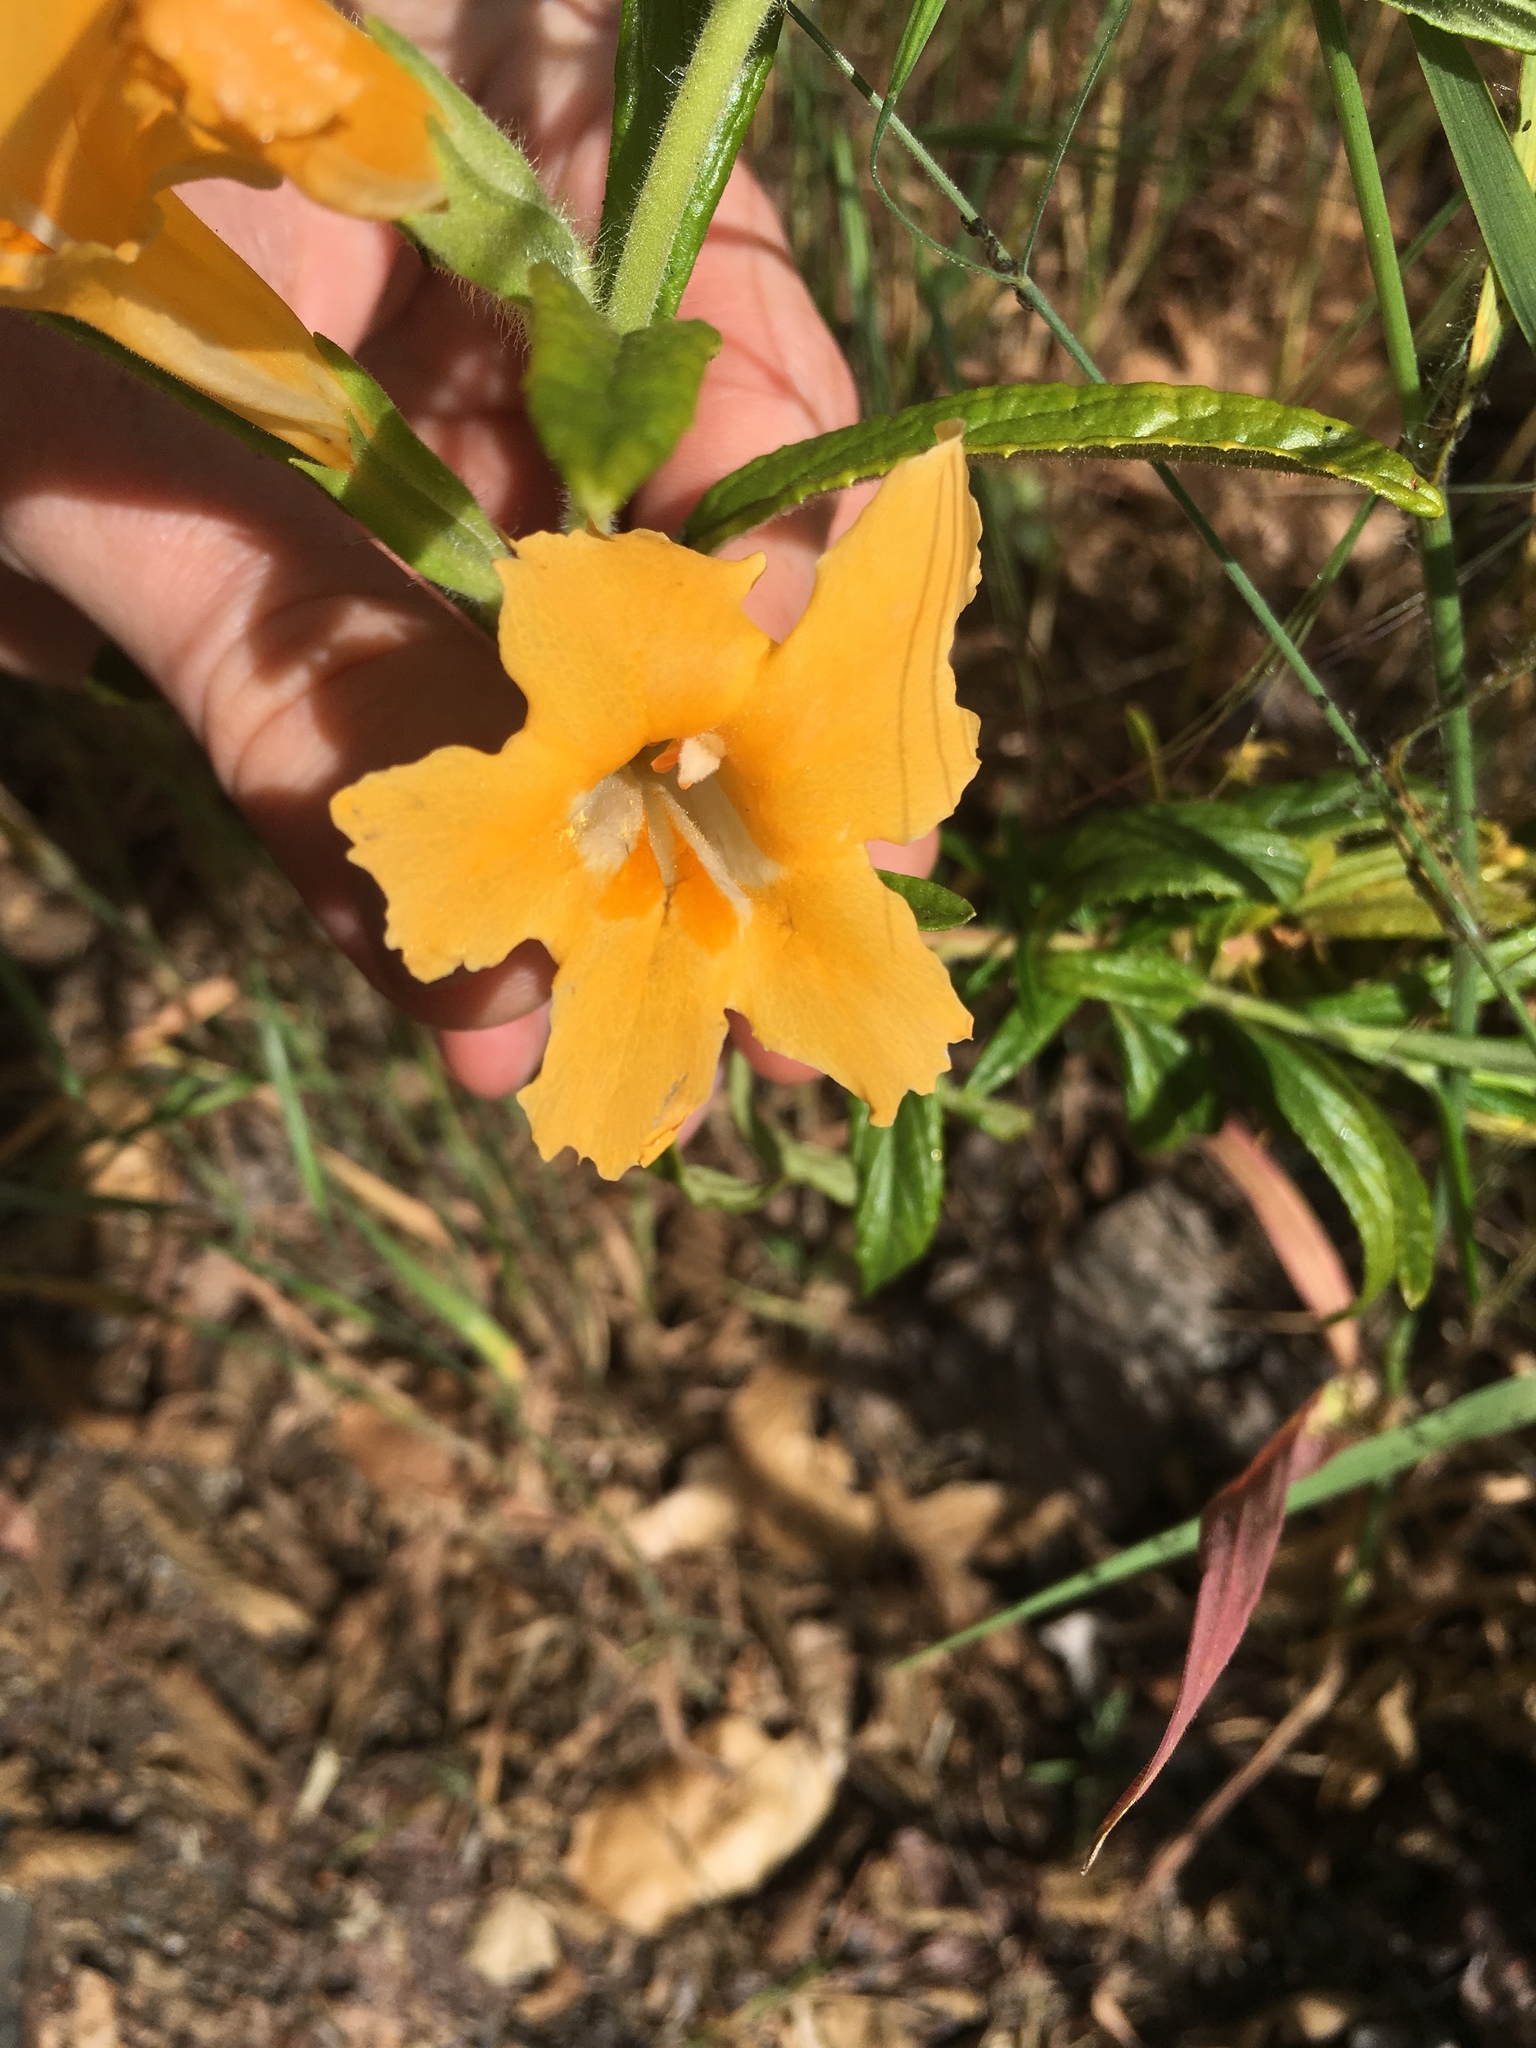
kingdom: Plantae
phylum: Tracheophyta
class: Magnoliopsida
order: Lamiales
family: Phrymaceae
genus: Diplacus
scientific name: Diplacus longiflorus
